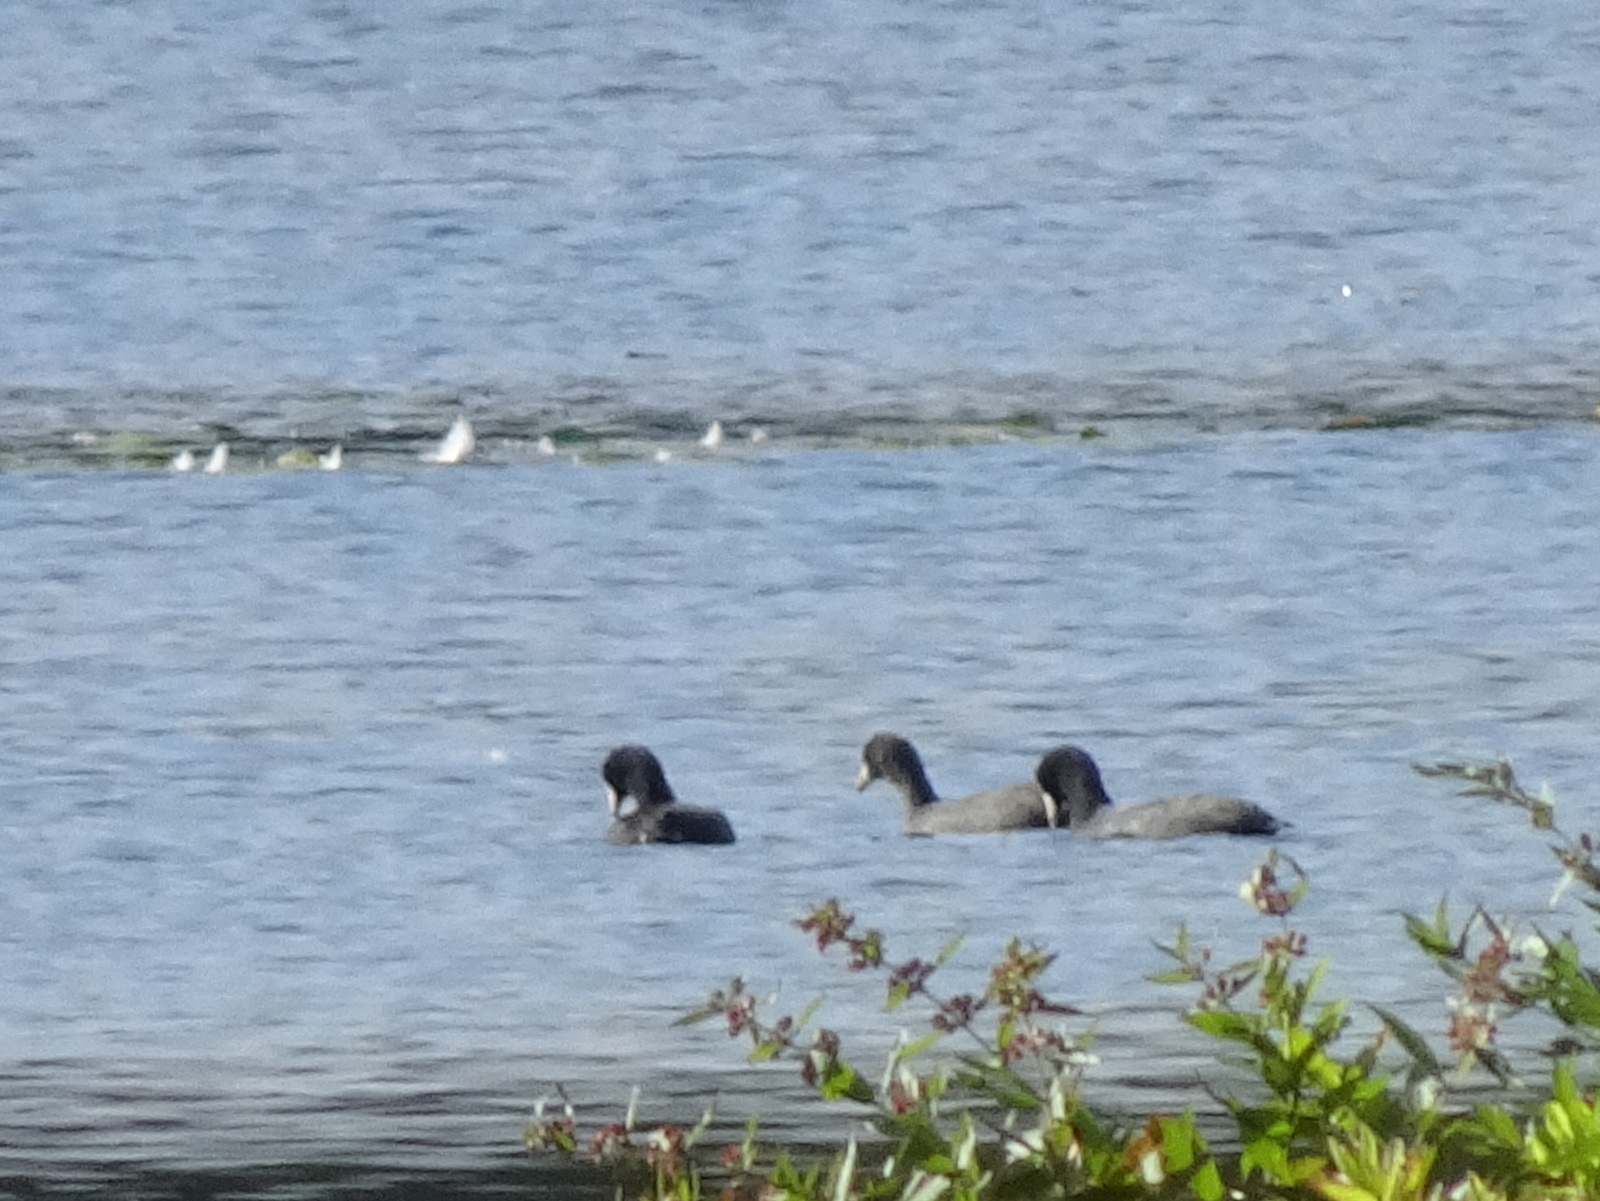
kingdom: Animalia
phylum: Chordata
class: Aves
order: Gruiformes
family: Rallidae
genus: Fulica
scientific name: Fulica americana
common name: American coot
